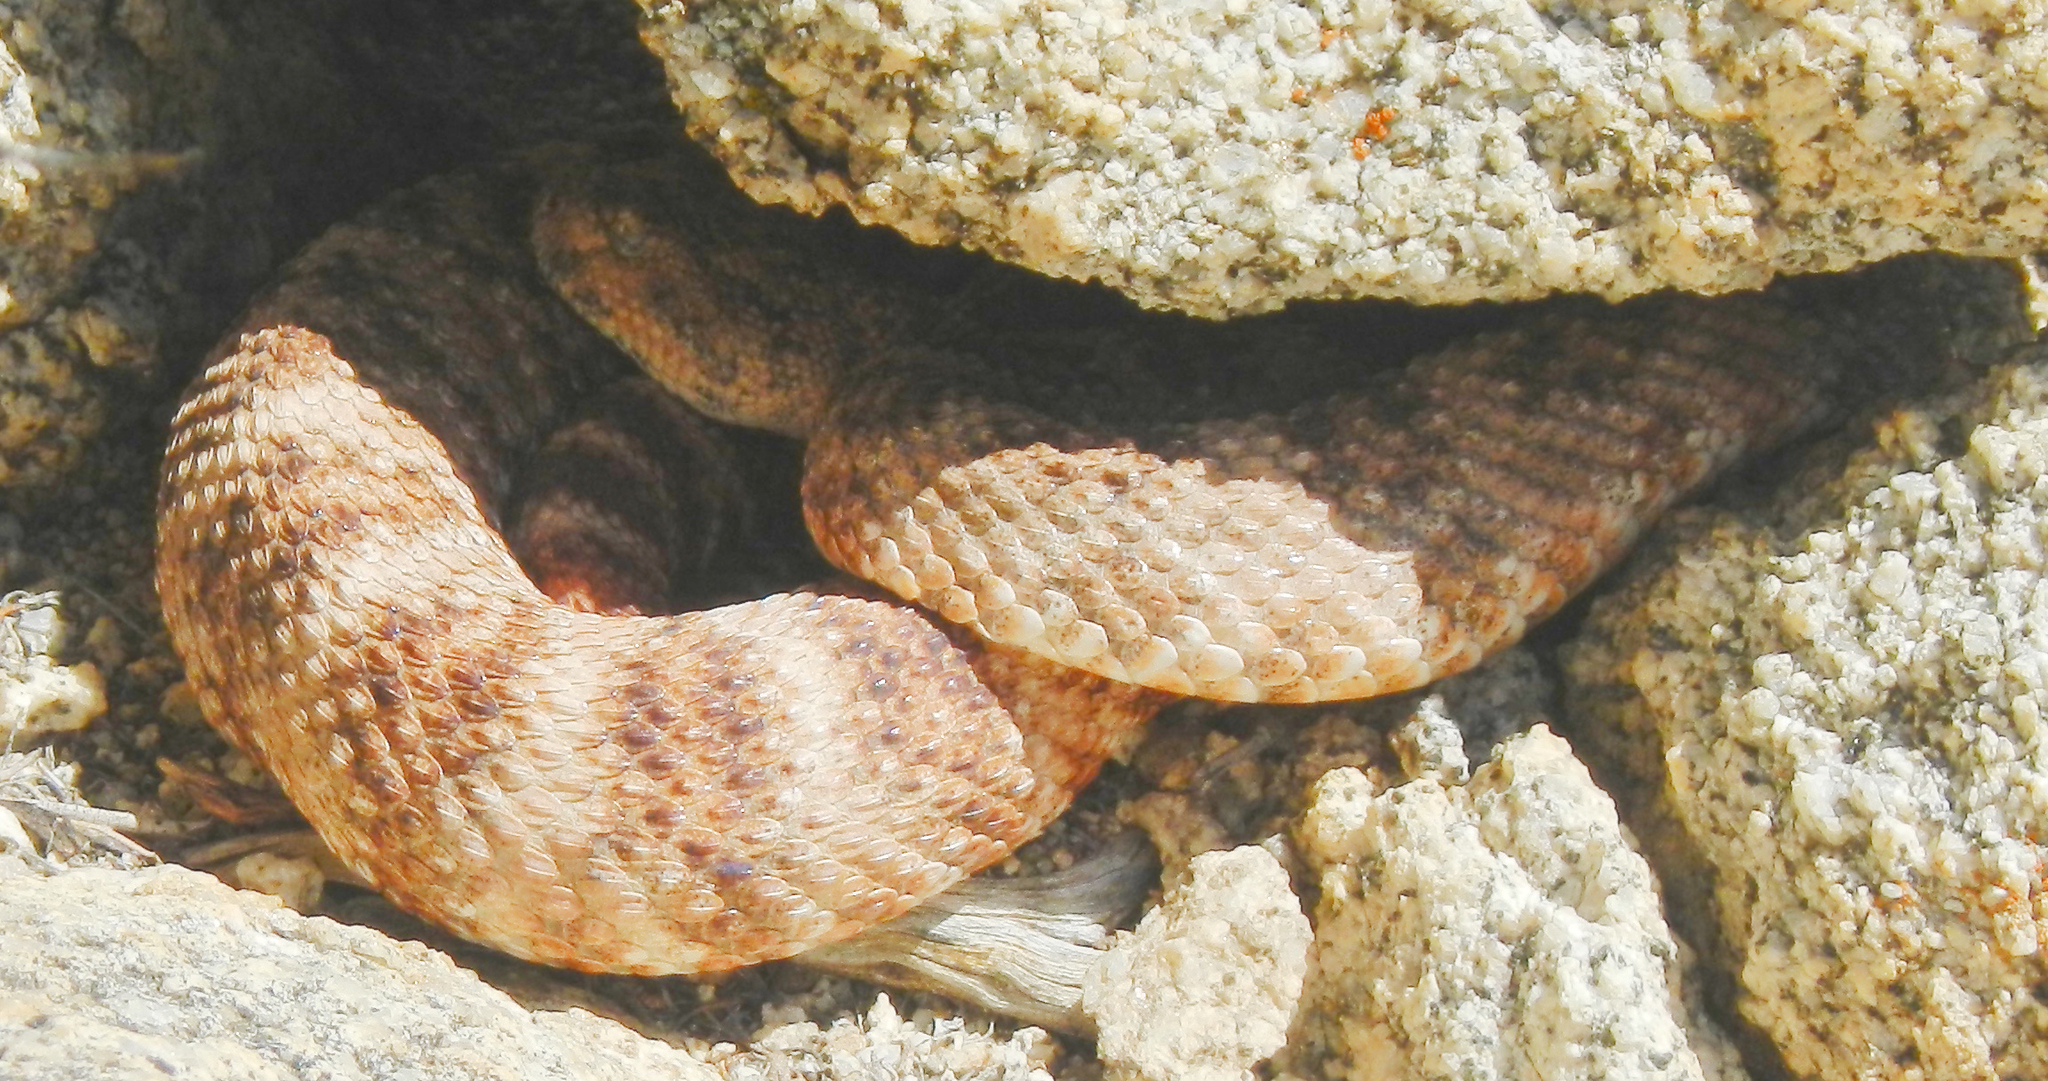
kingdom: Animalia
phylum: Chordata
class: Squamata
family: Viperidae
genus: Crotalus
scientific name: Crotalus pyrrhus
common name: Southwestern speckled rattlesnake
